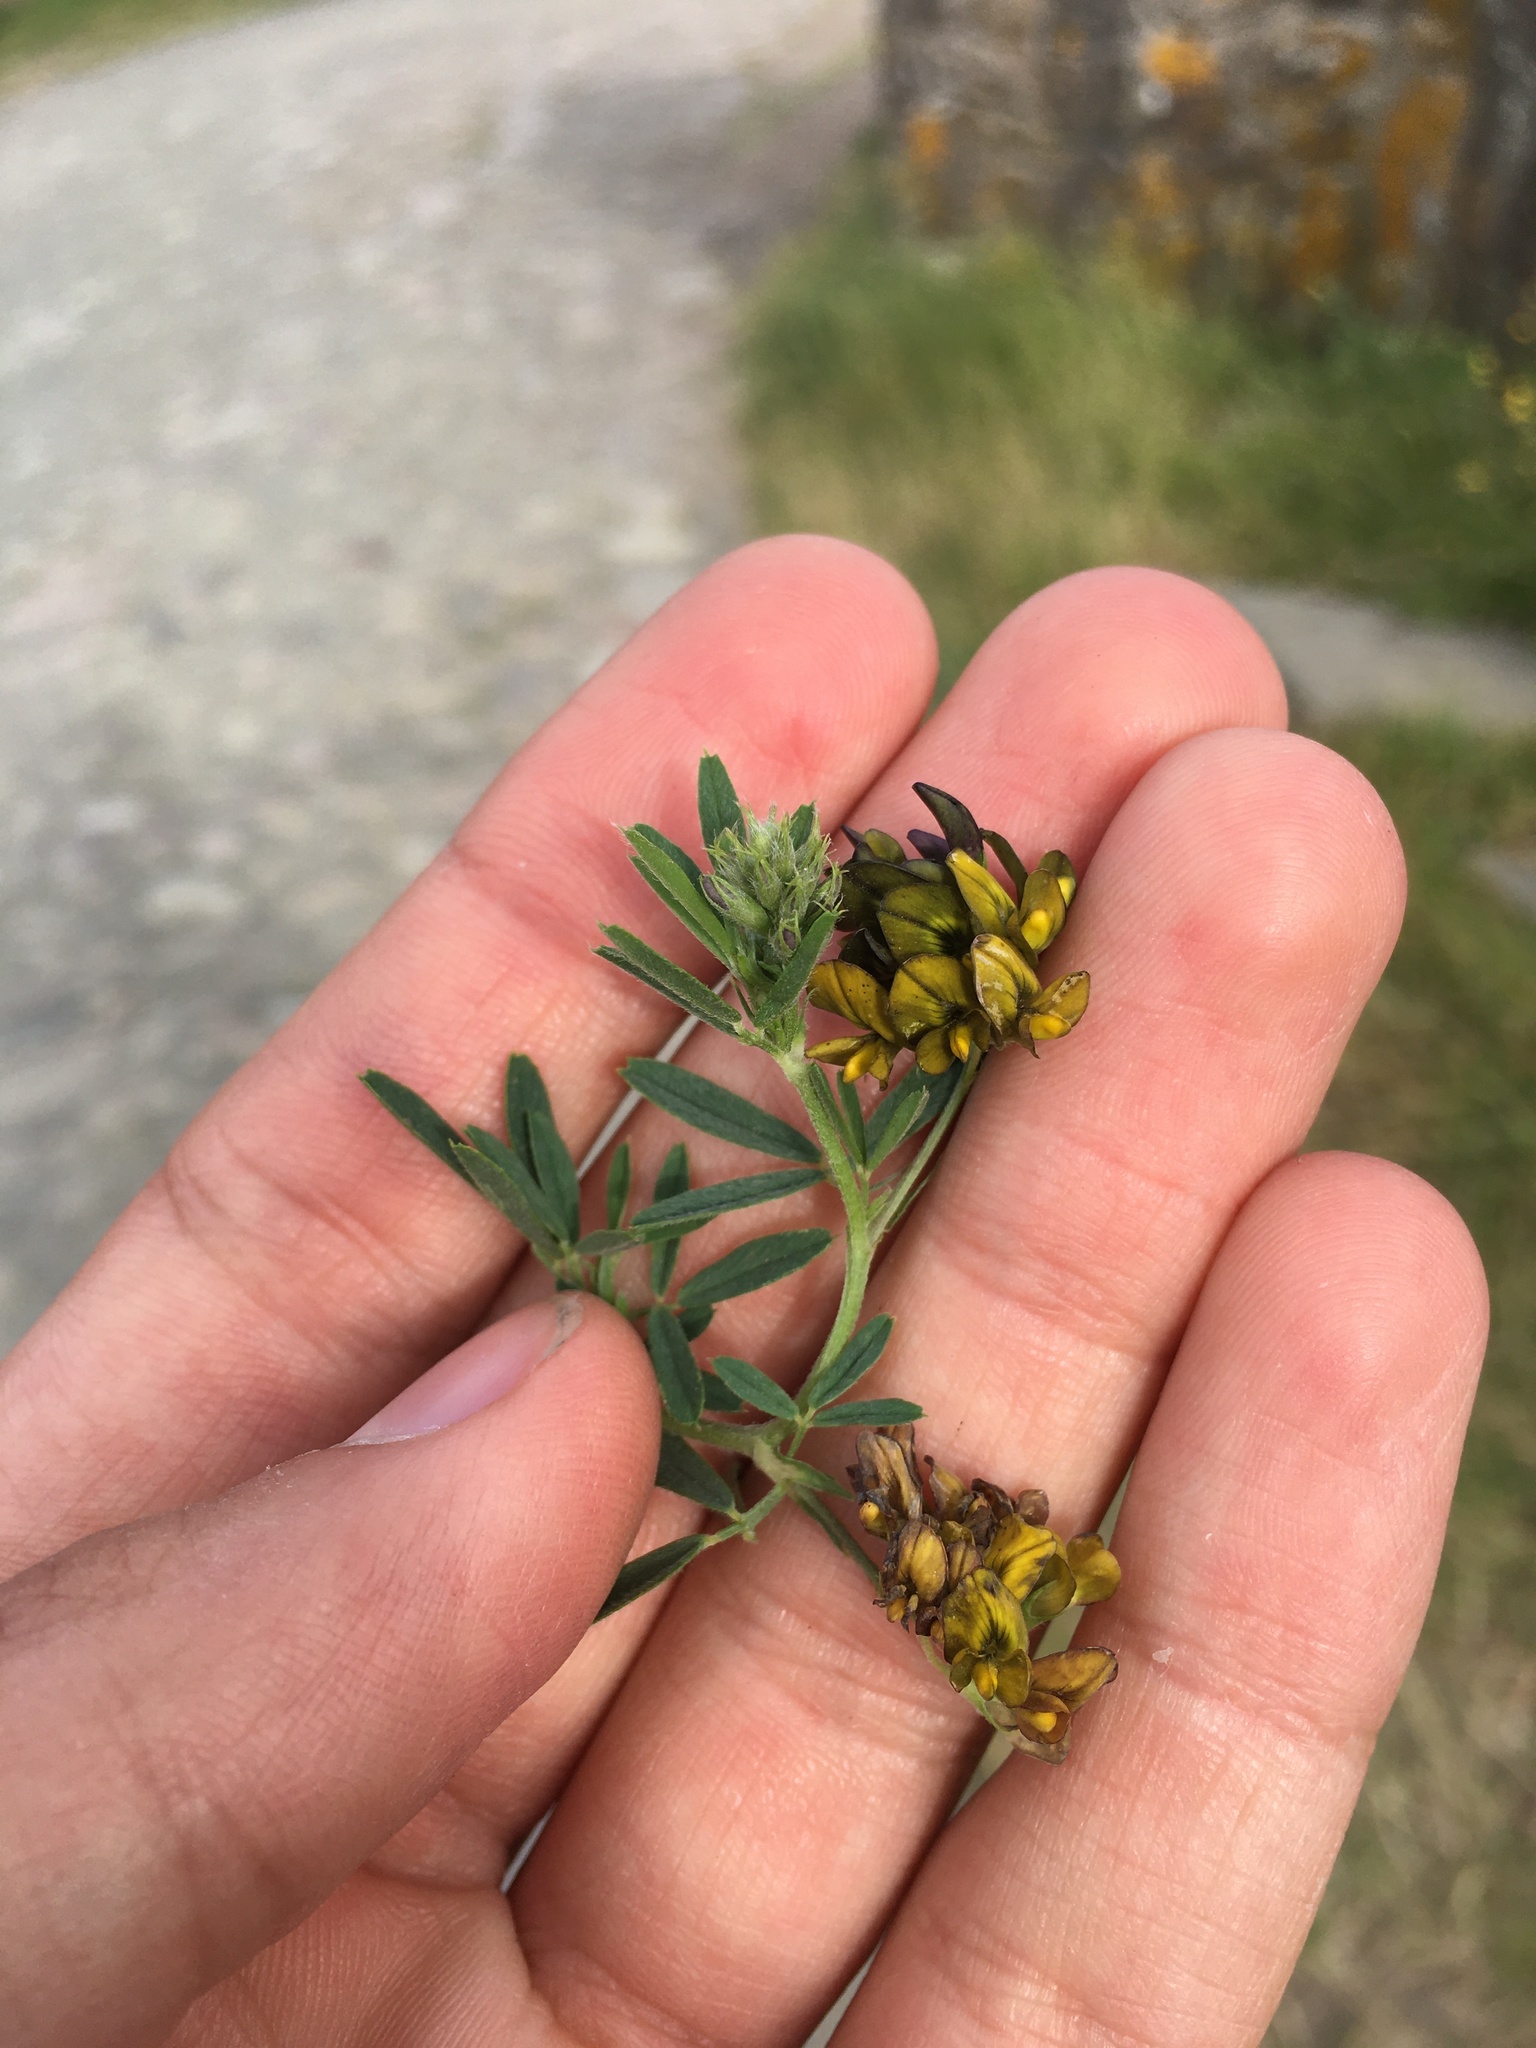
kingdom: Plantae
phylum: Tracheophyta
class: Magnoliopsida
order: Fabales
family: Fabaceae
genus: Medicago
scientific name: Medicago varia
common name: Sand lucerne
